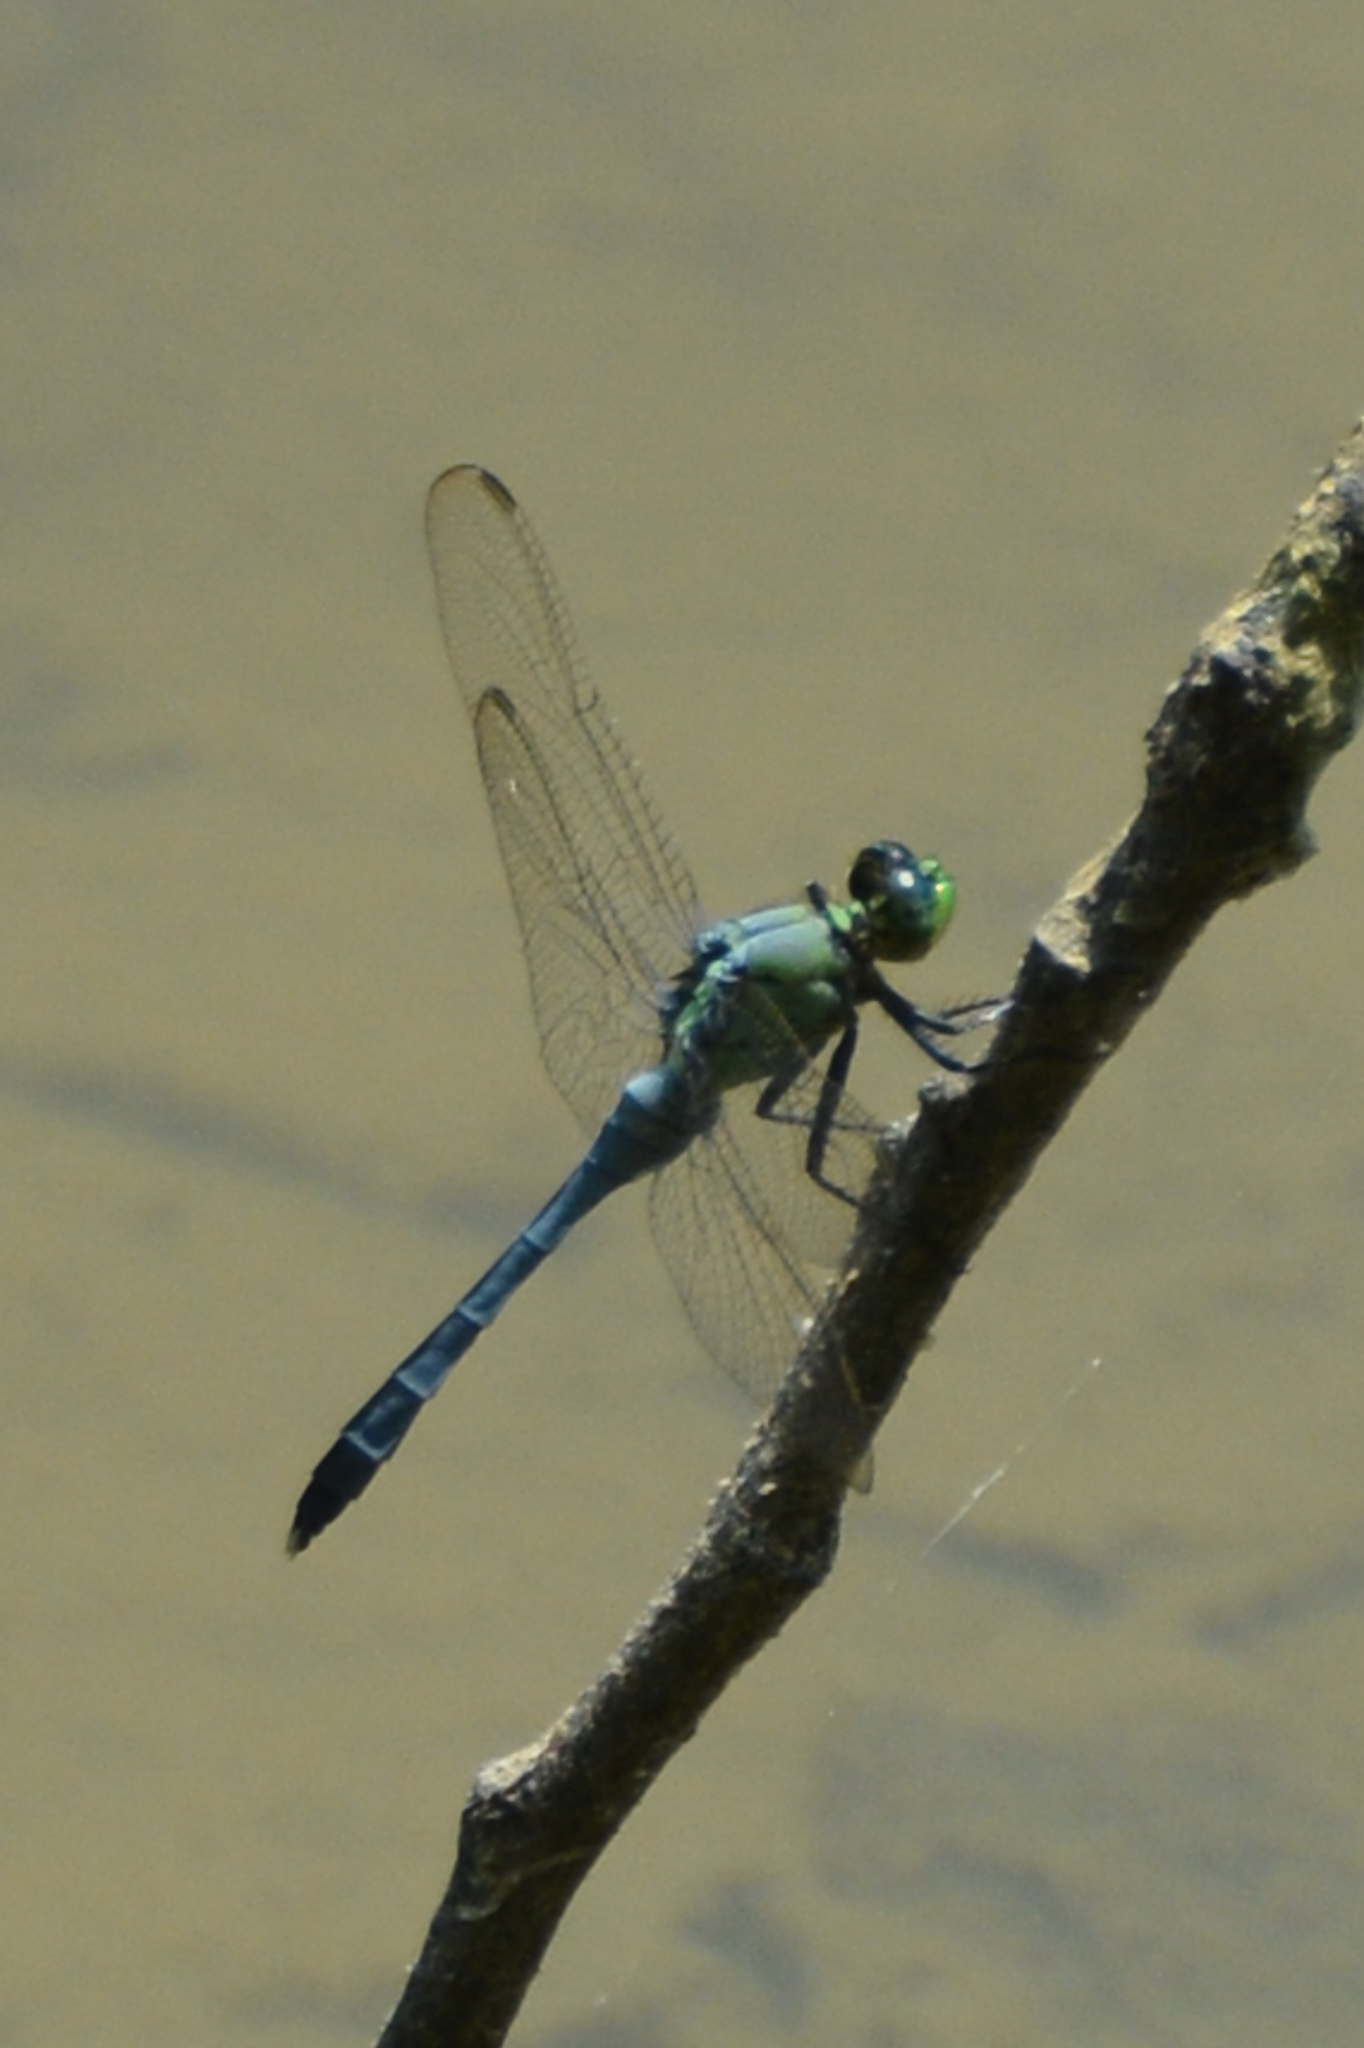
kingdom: Animalia
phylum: Arthropoda
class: Insecta
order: Odonata
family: Libellulidae
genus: Erythemis
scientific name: Erythemis simplicicollis
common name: Eastern pondhawk
